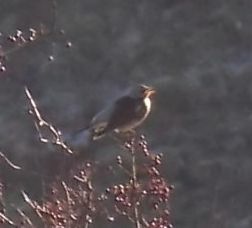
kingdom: Animalia
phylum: Chordata
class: Aves
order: Passeriformes
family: Turdidae
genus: Turdus
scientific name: Turdus pilaris
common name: Fieldfare
